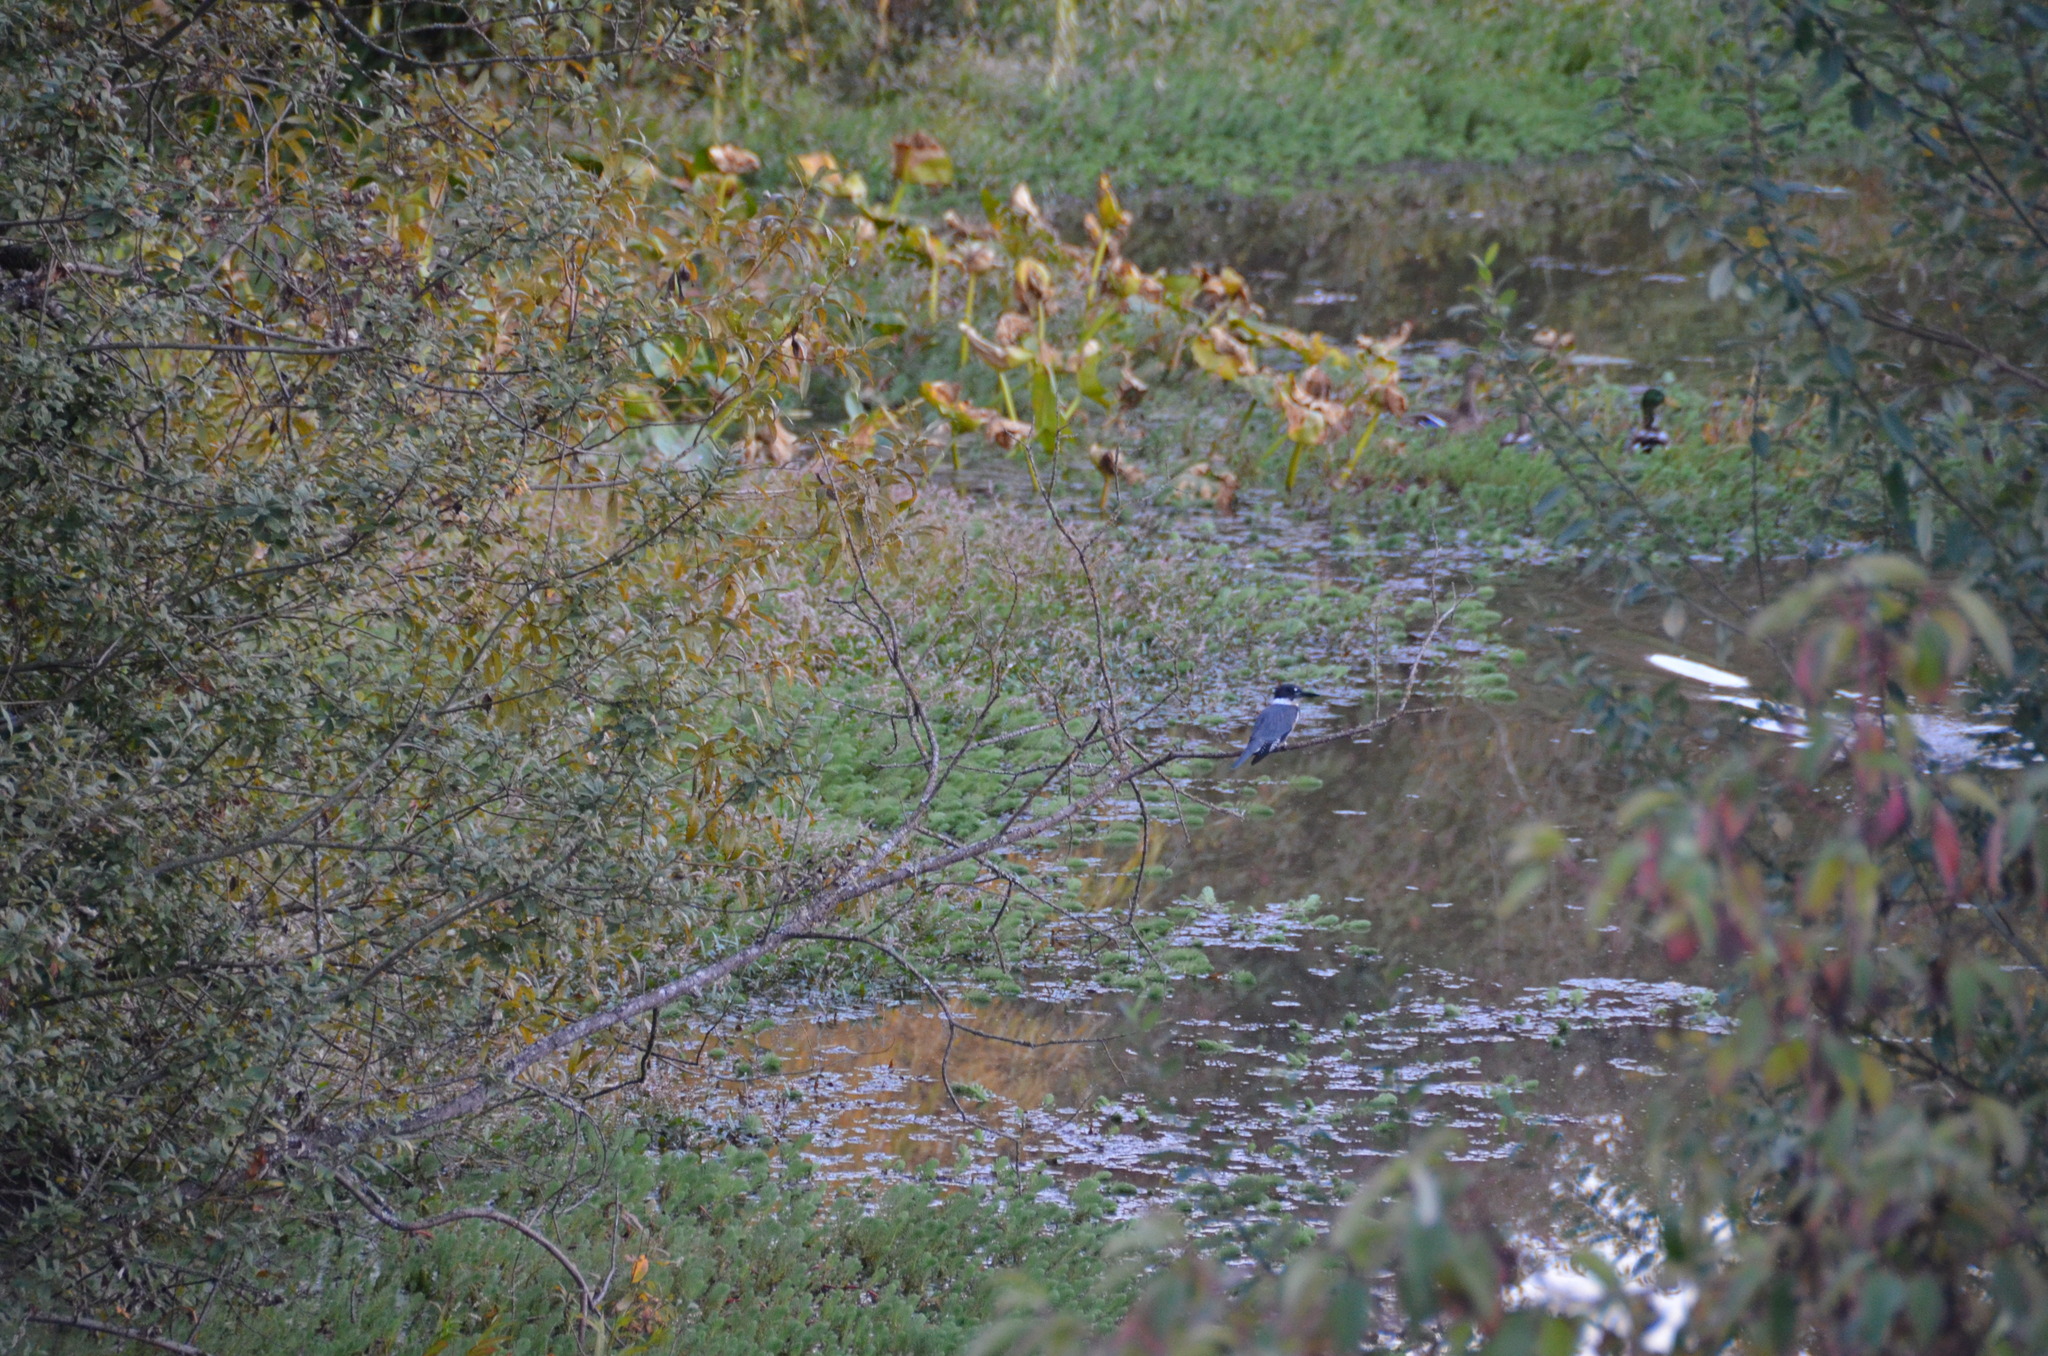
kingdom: Animalia
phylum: Chordata
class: Aves
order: Coraciiformes
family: Alcedinidae
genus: Megaceryle
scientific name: Megaceryle alcyon
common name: Belted kingfisher
